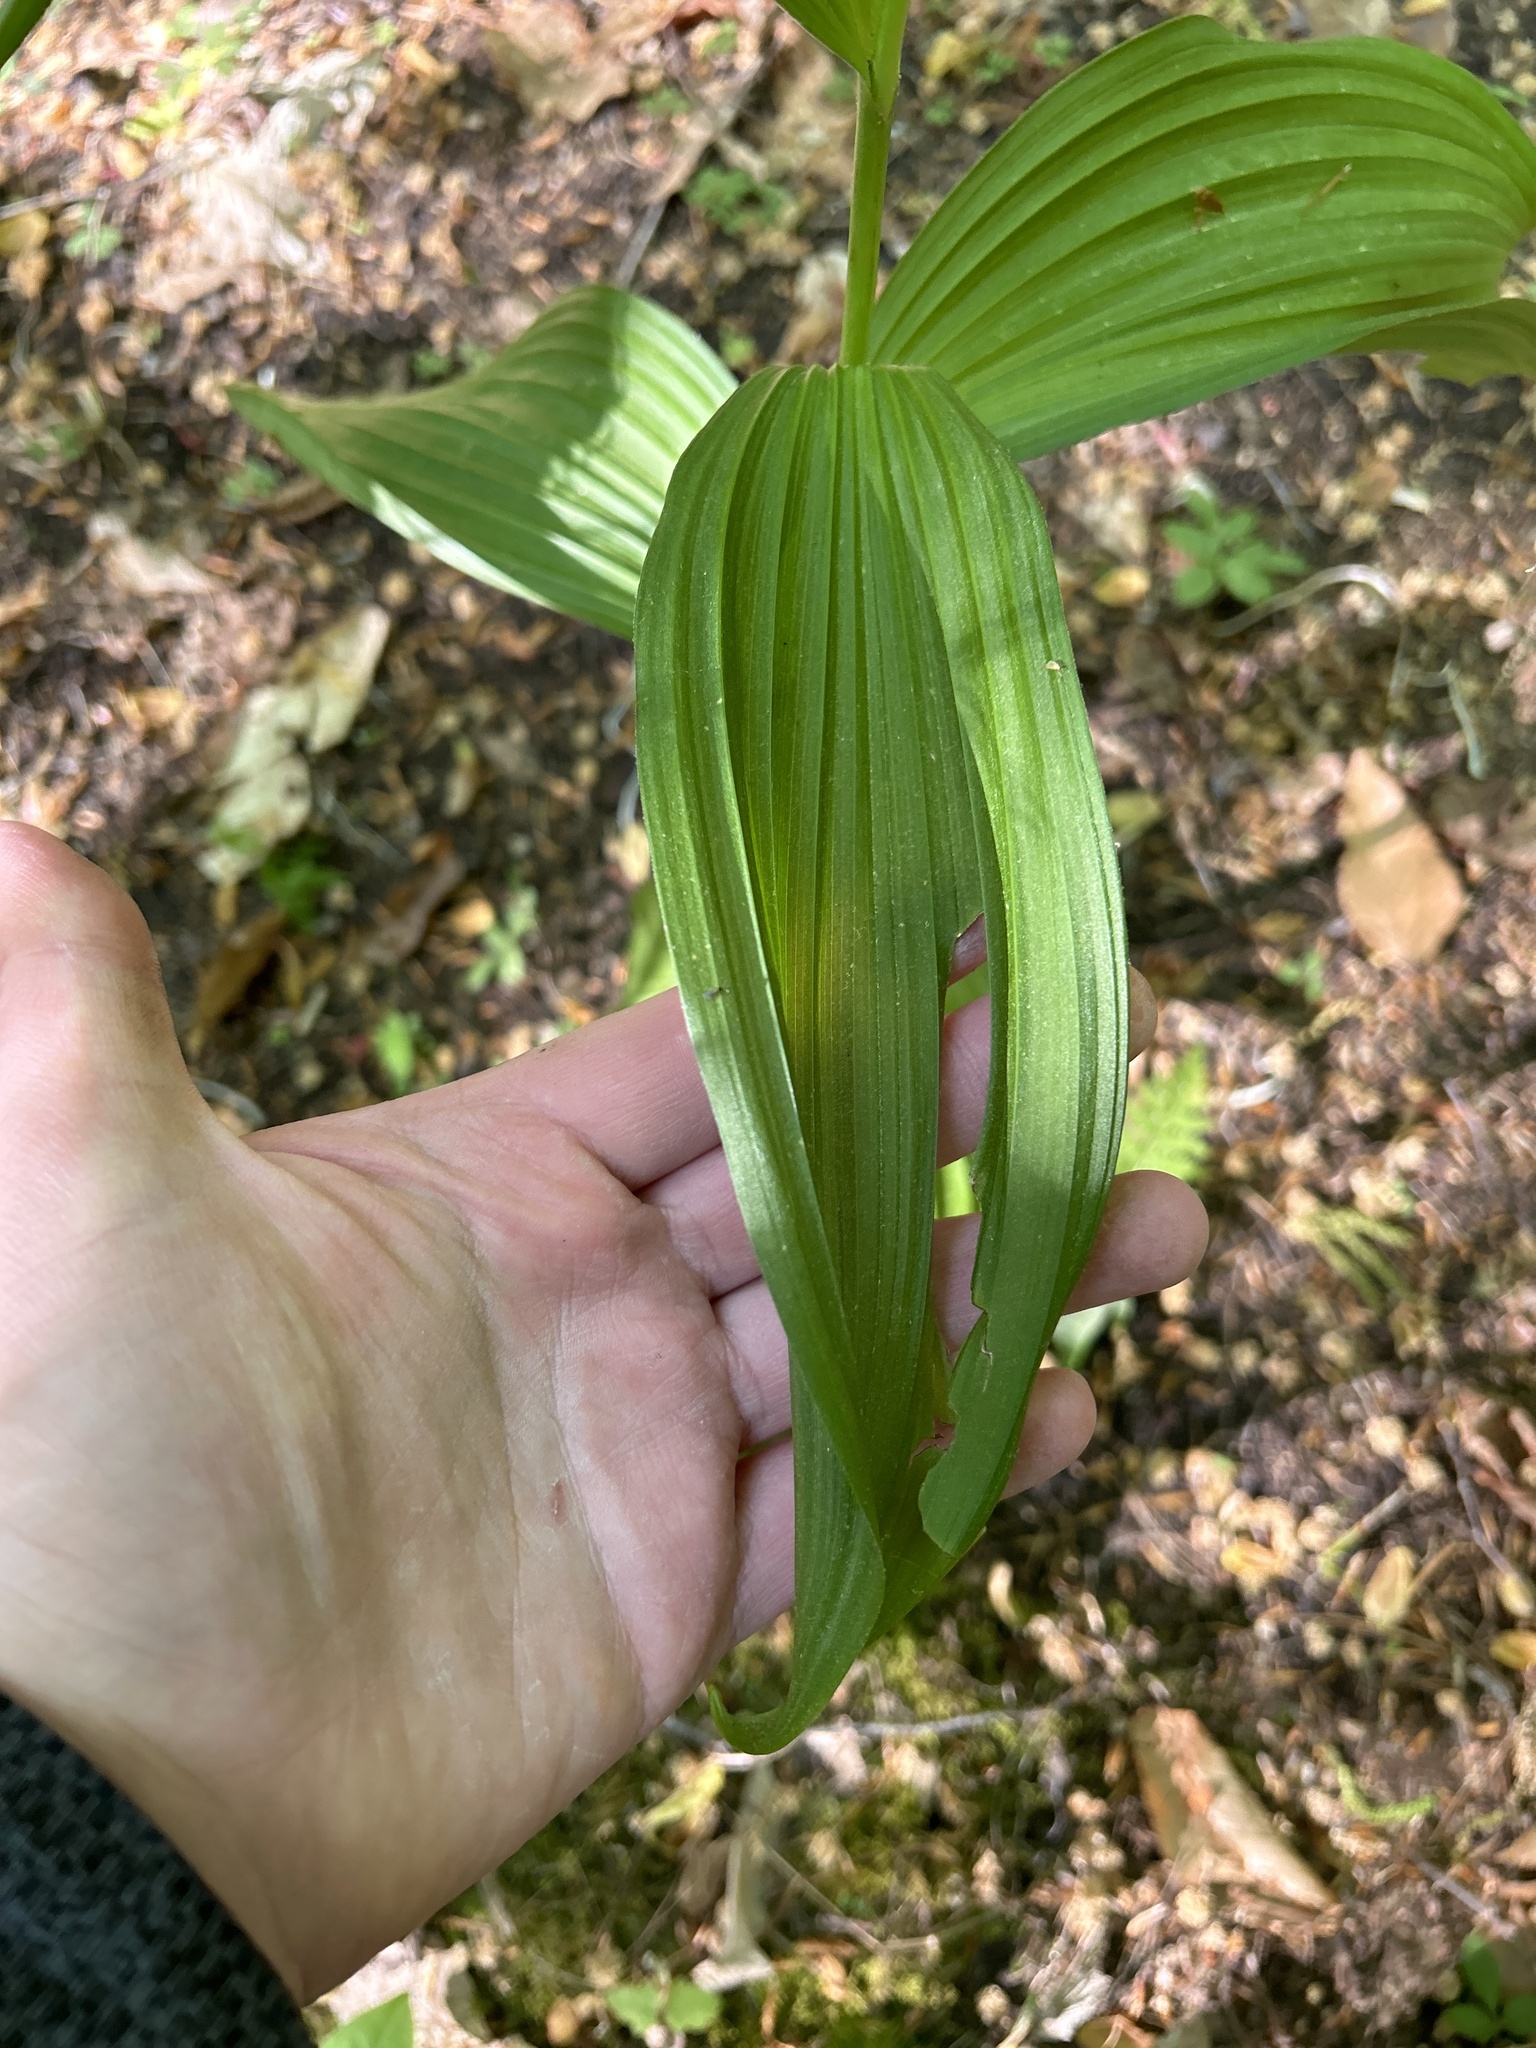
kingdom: Plantae
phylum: Tracheophyta
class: Liliopsida
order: Liliales
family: Melanthiaceae
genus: Veratrum
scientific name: Veratrum viride
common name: American false hellebore
